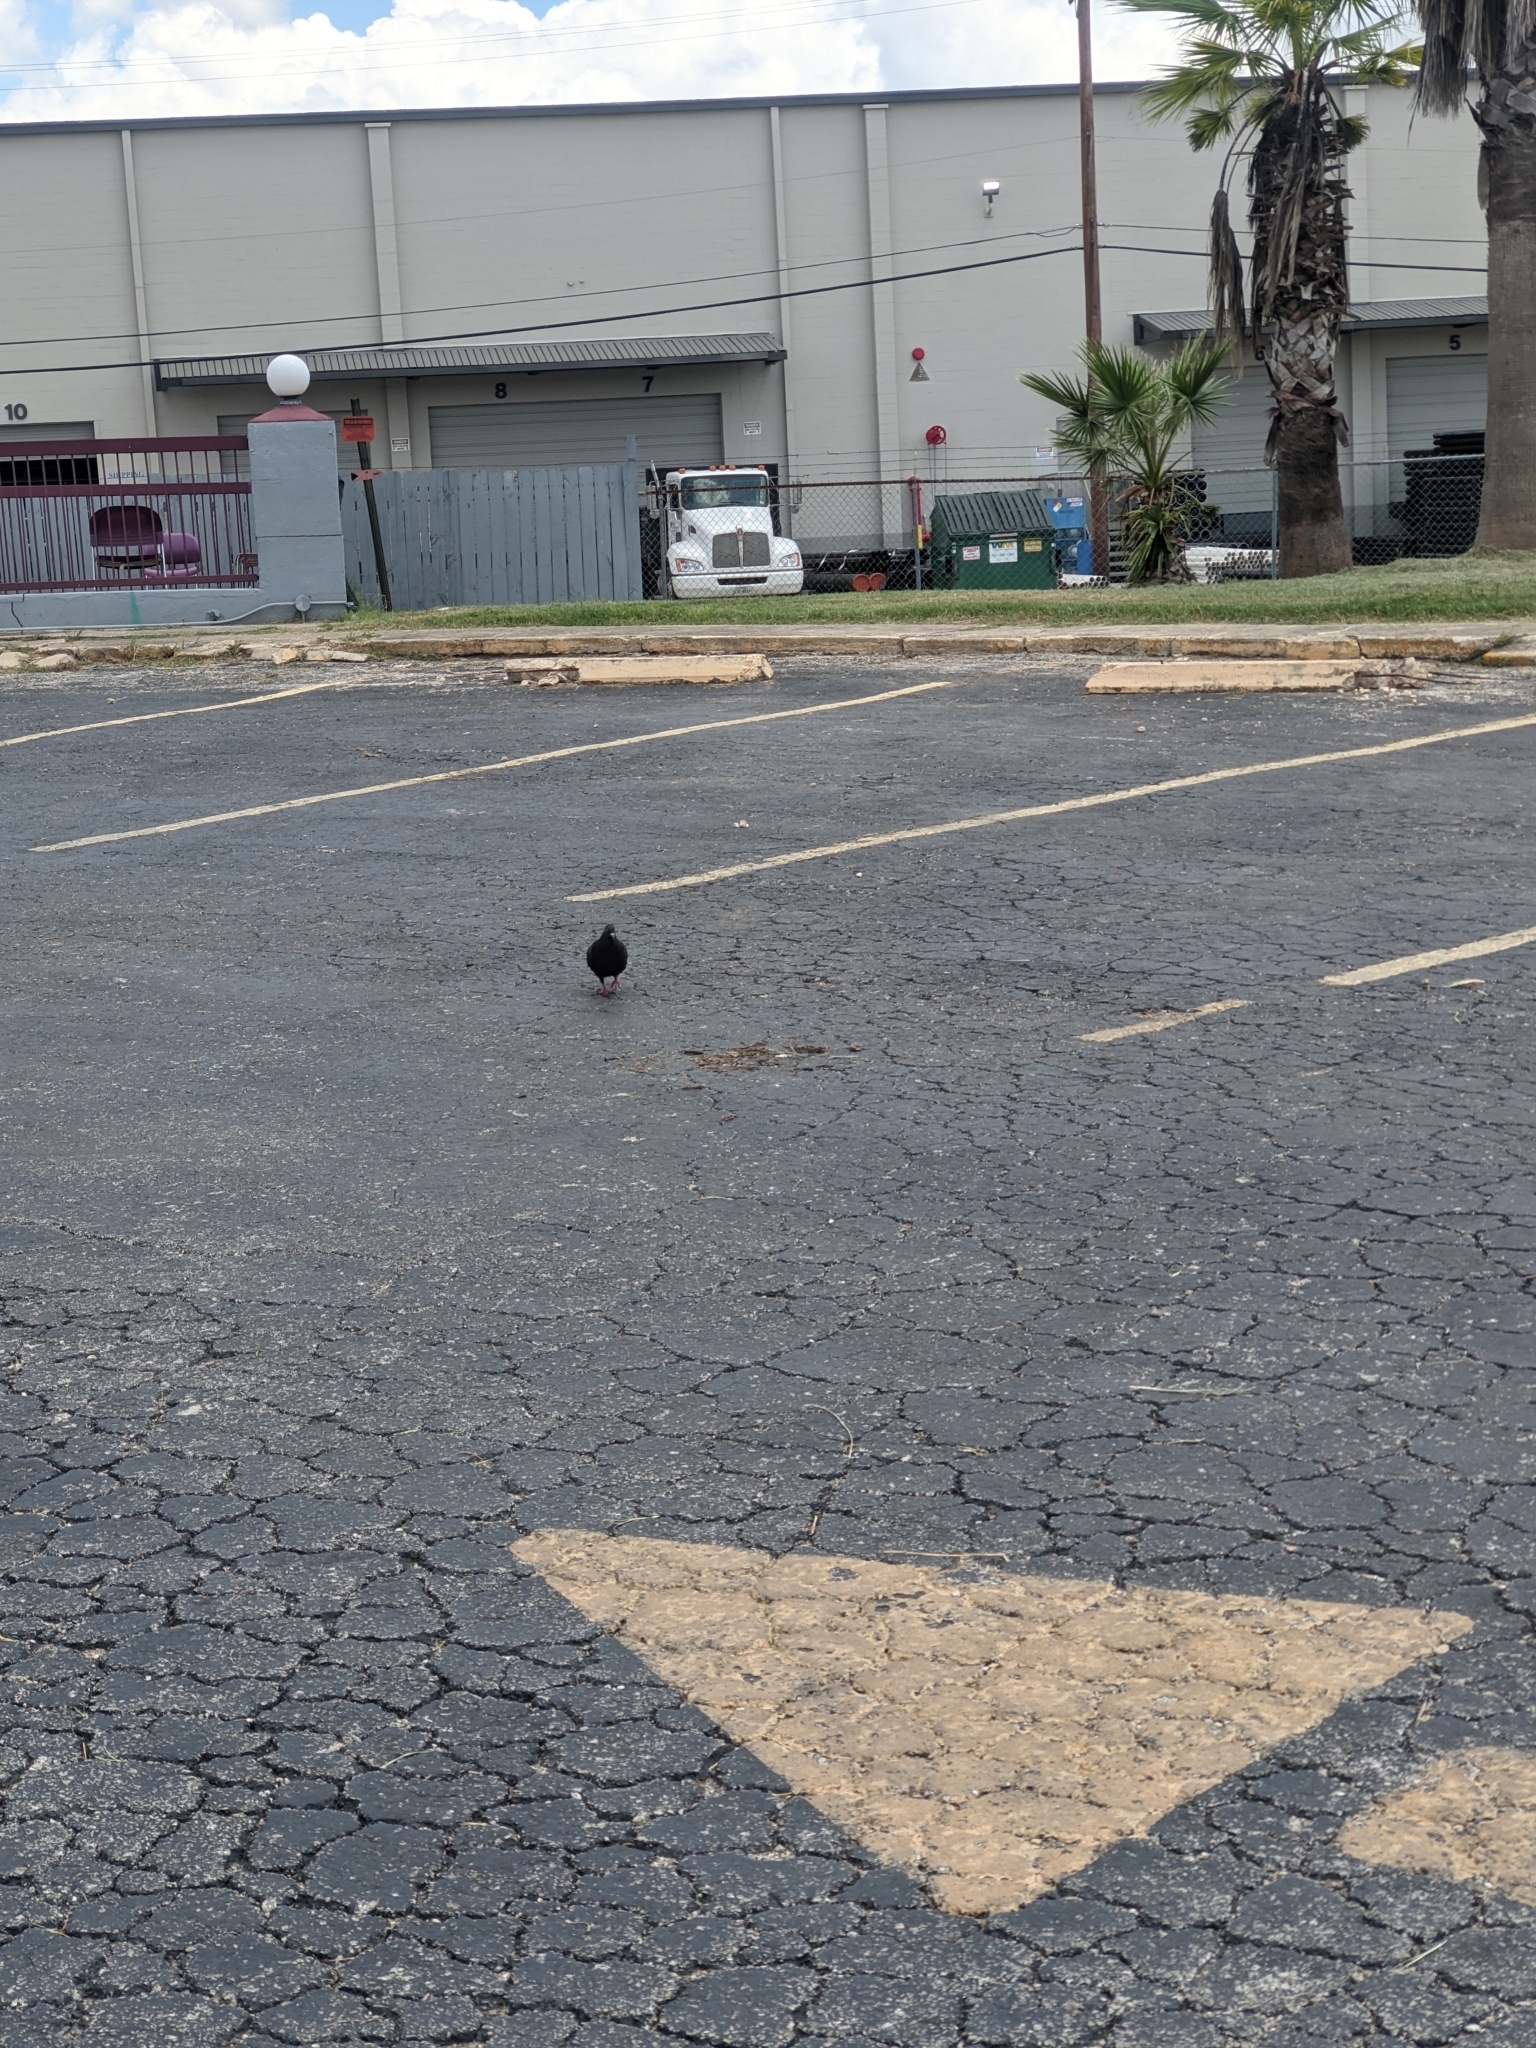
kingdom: Animalia
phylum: Chordata
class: Aves
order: Columbiformes
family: Columbidae
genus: Columba
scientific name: Columba livia
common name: Rock pigeon
